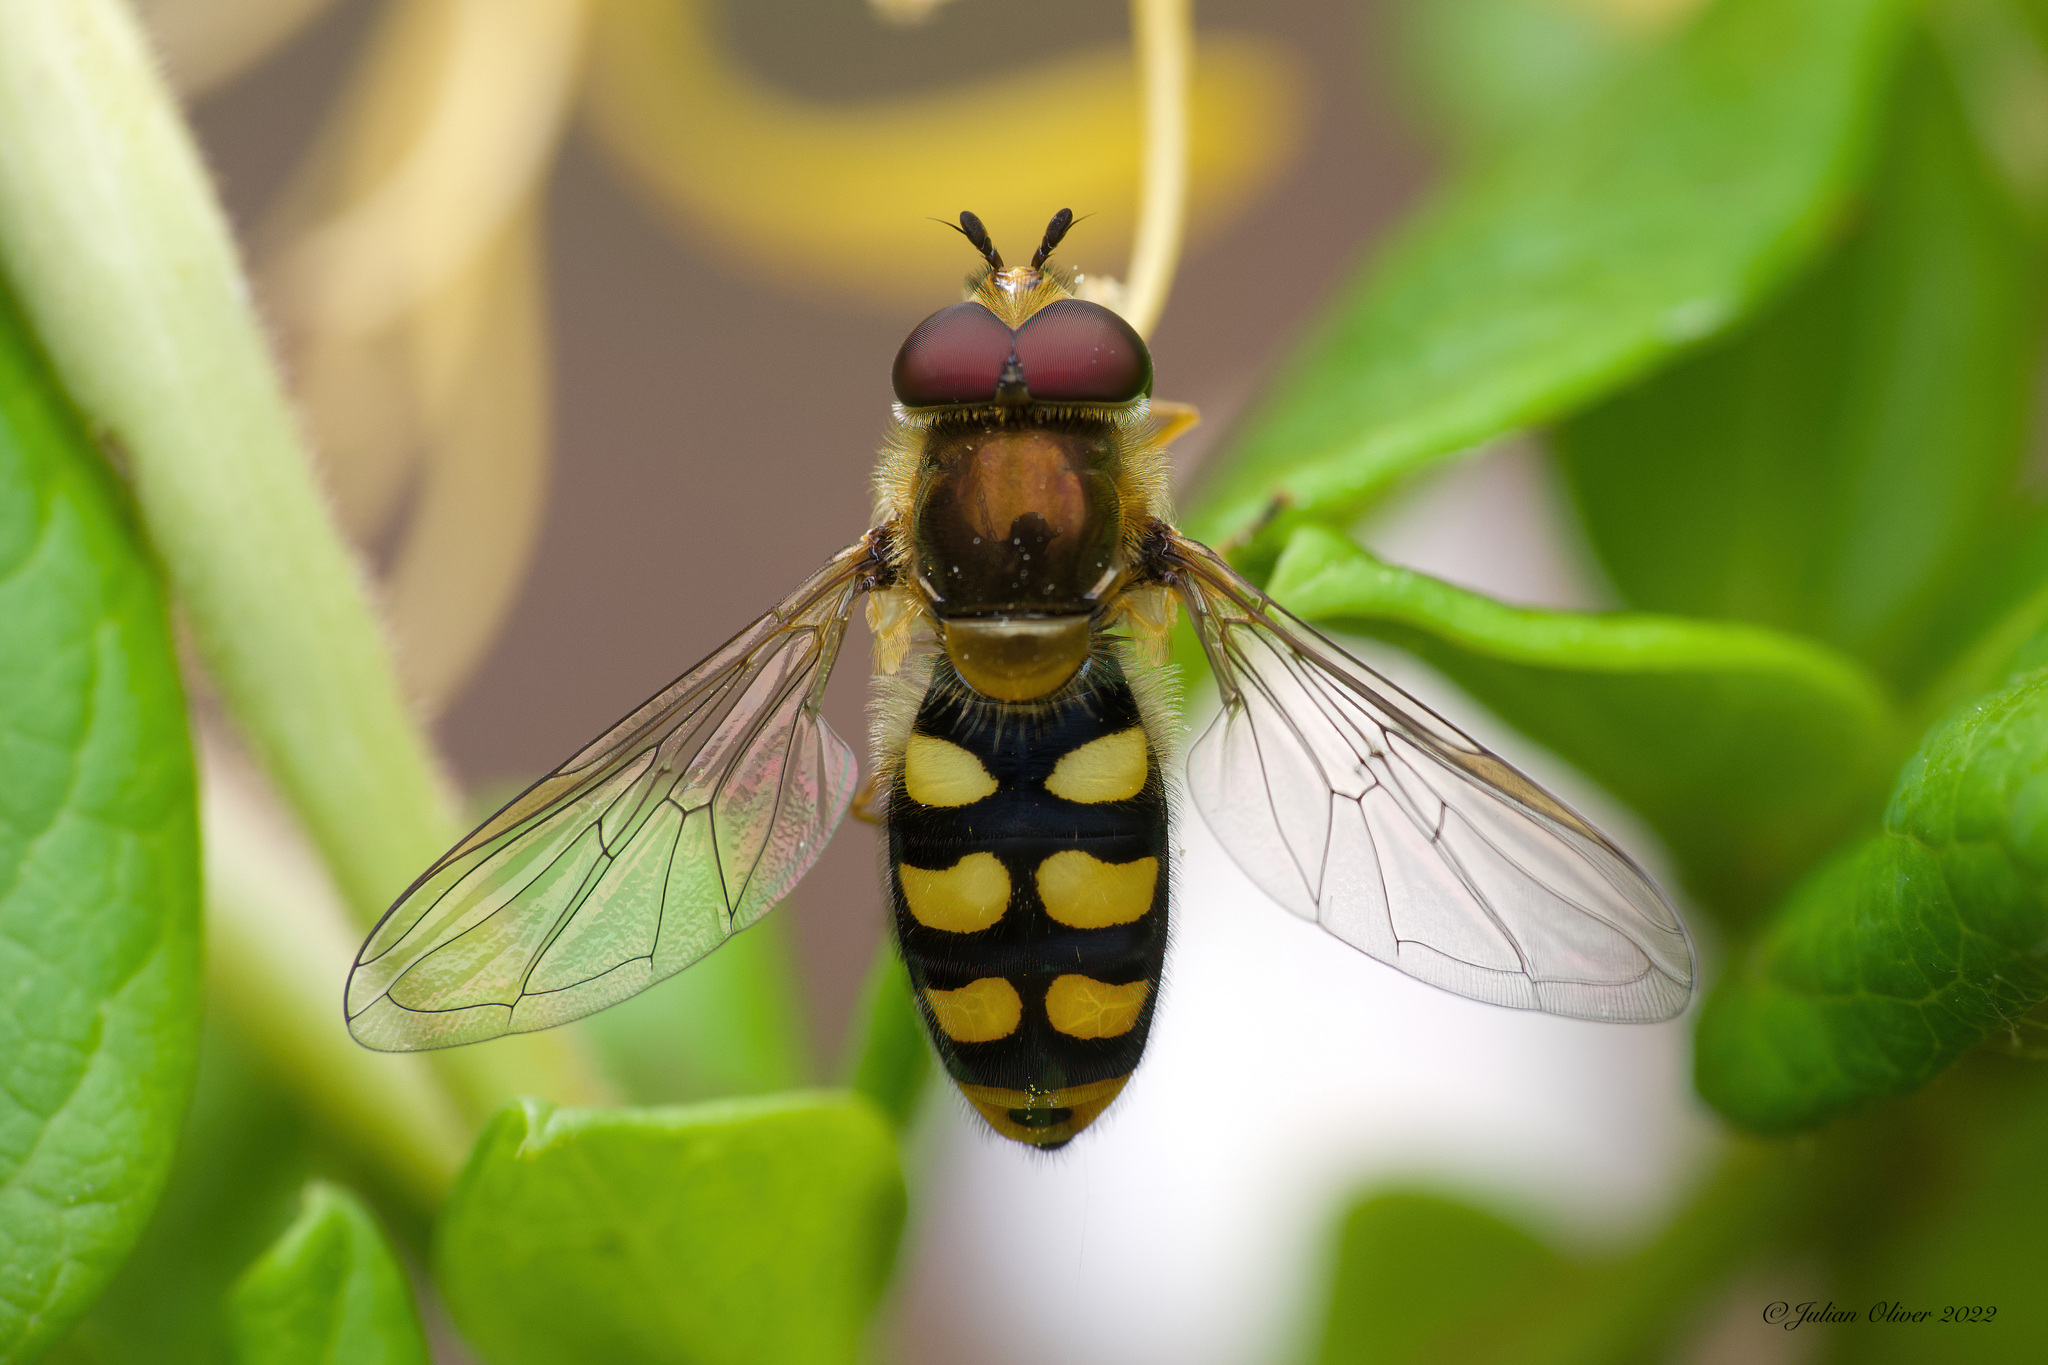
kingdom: Animalia
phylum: Arthropoda
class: Insecta
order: Diptera
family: Syrphidae
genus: Eupeodes
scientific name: Eupeodes
